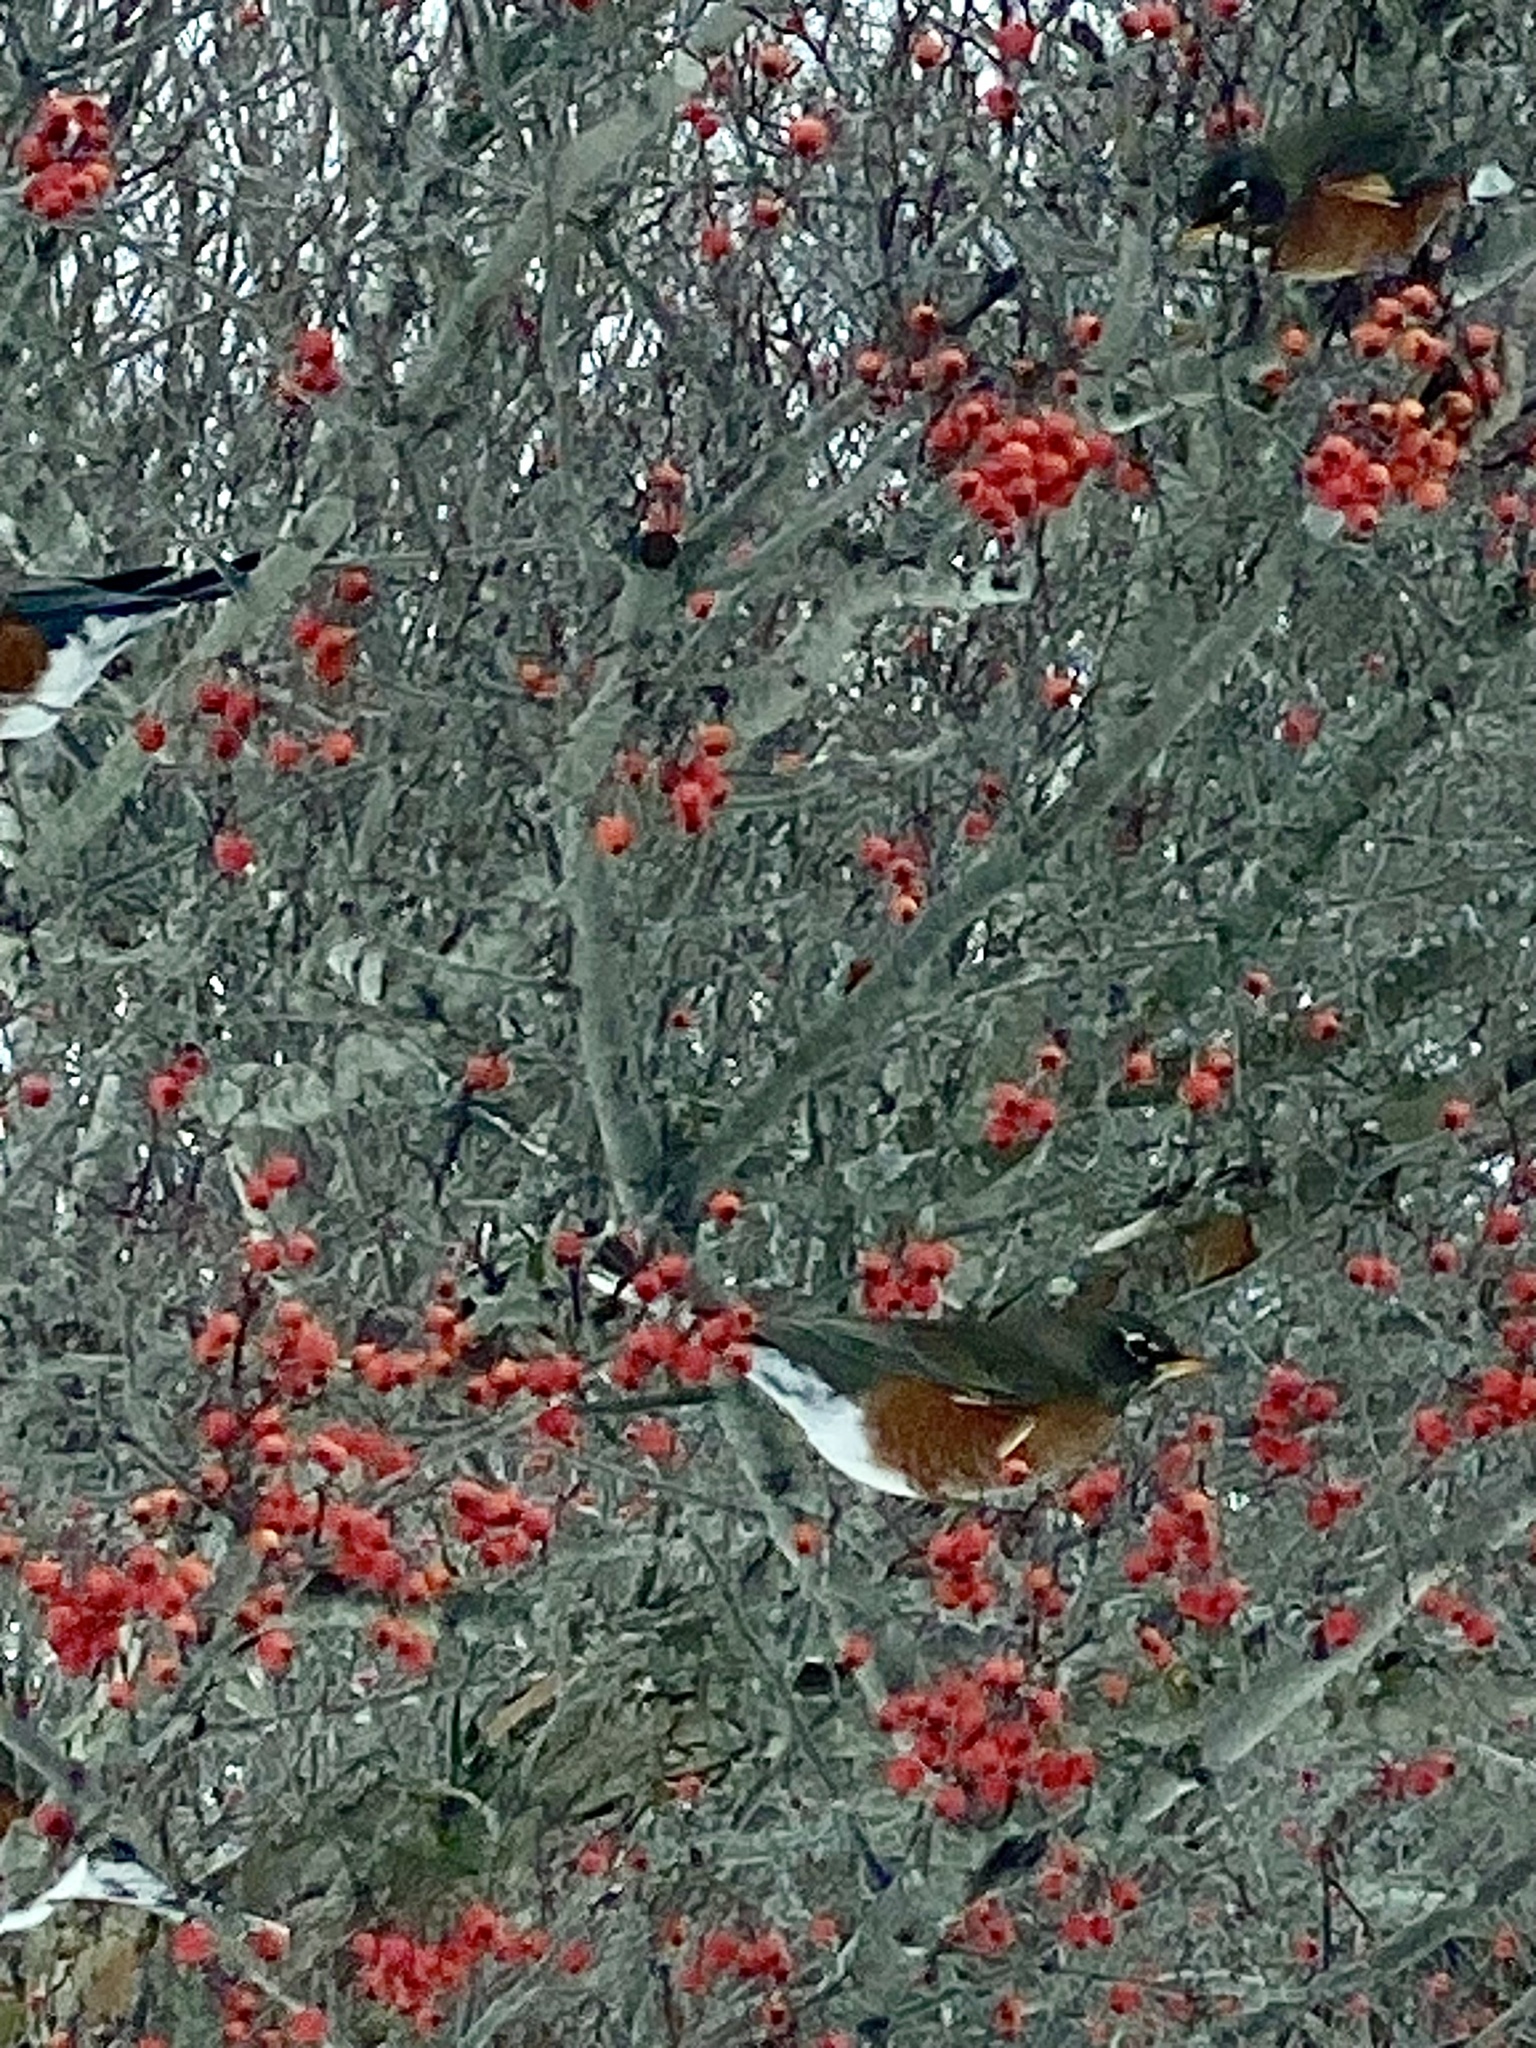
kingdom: Animalia
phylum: Chordata
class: Aves
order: Passeriformes
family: Turdidae
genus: Turdus
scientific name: Turdus migratorius
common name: American robin
